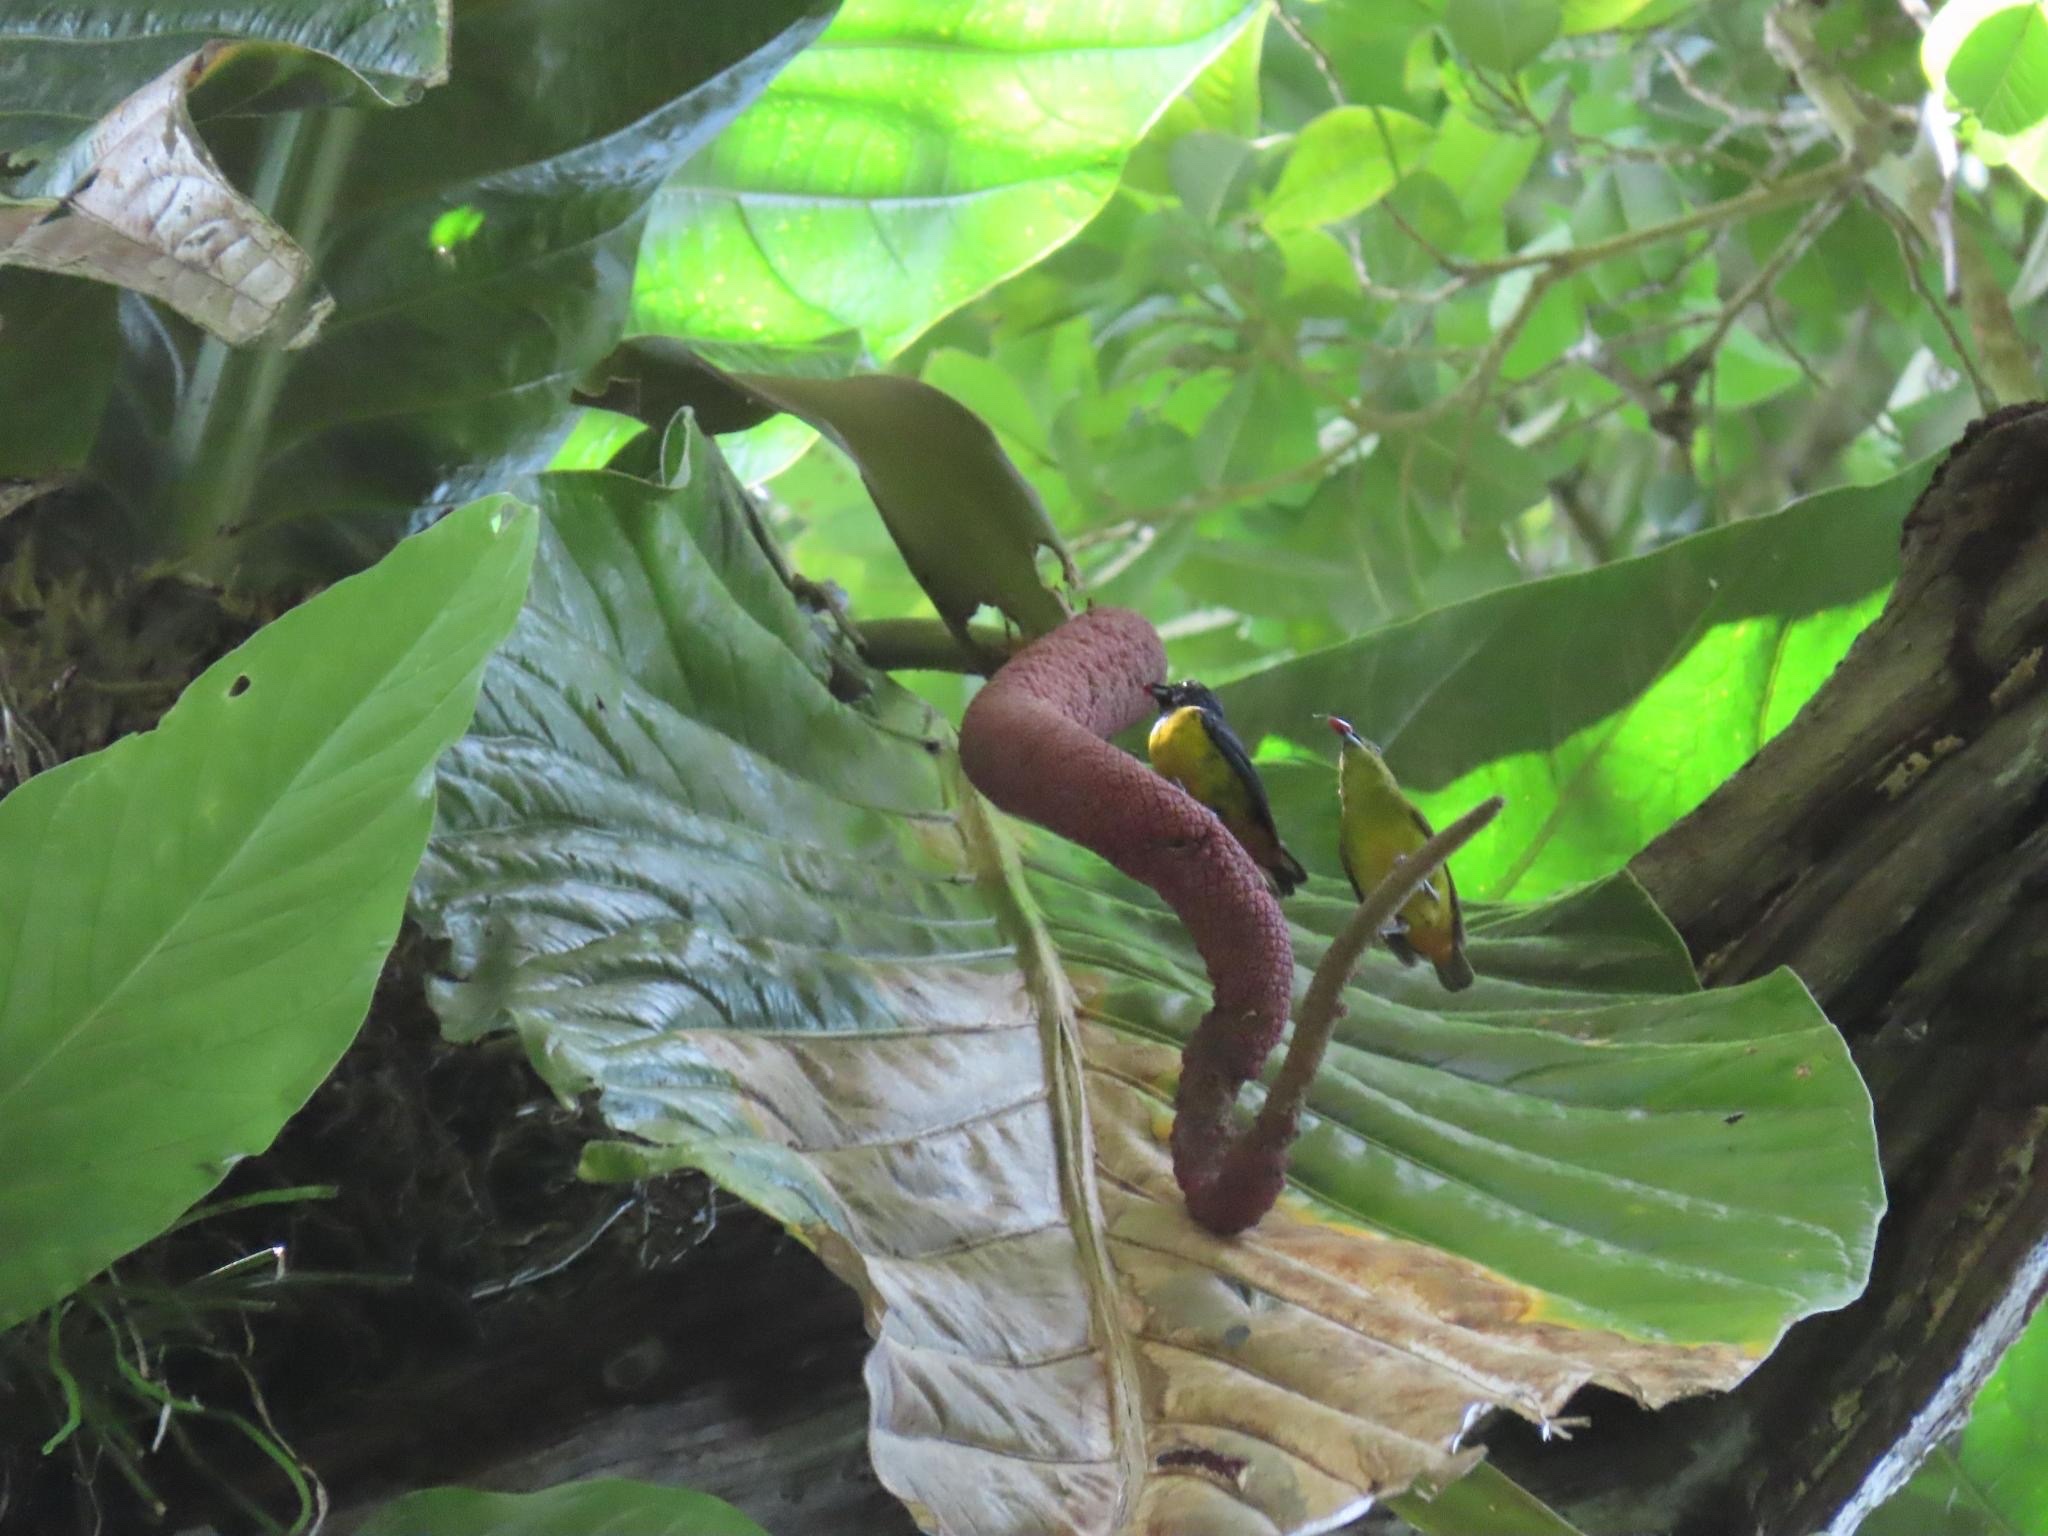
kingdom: Animalia
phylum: Chordata
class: Aves
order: Passeriformes
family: Fringillidae
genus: Euphonia
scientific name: Euphonia fulvicrissa
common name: Fulvous-vented euphonia
